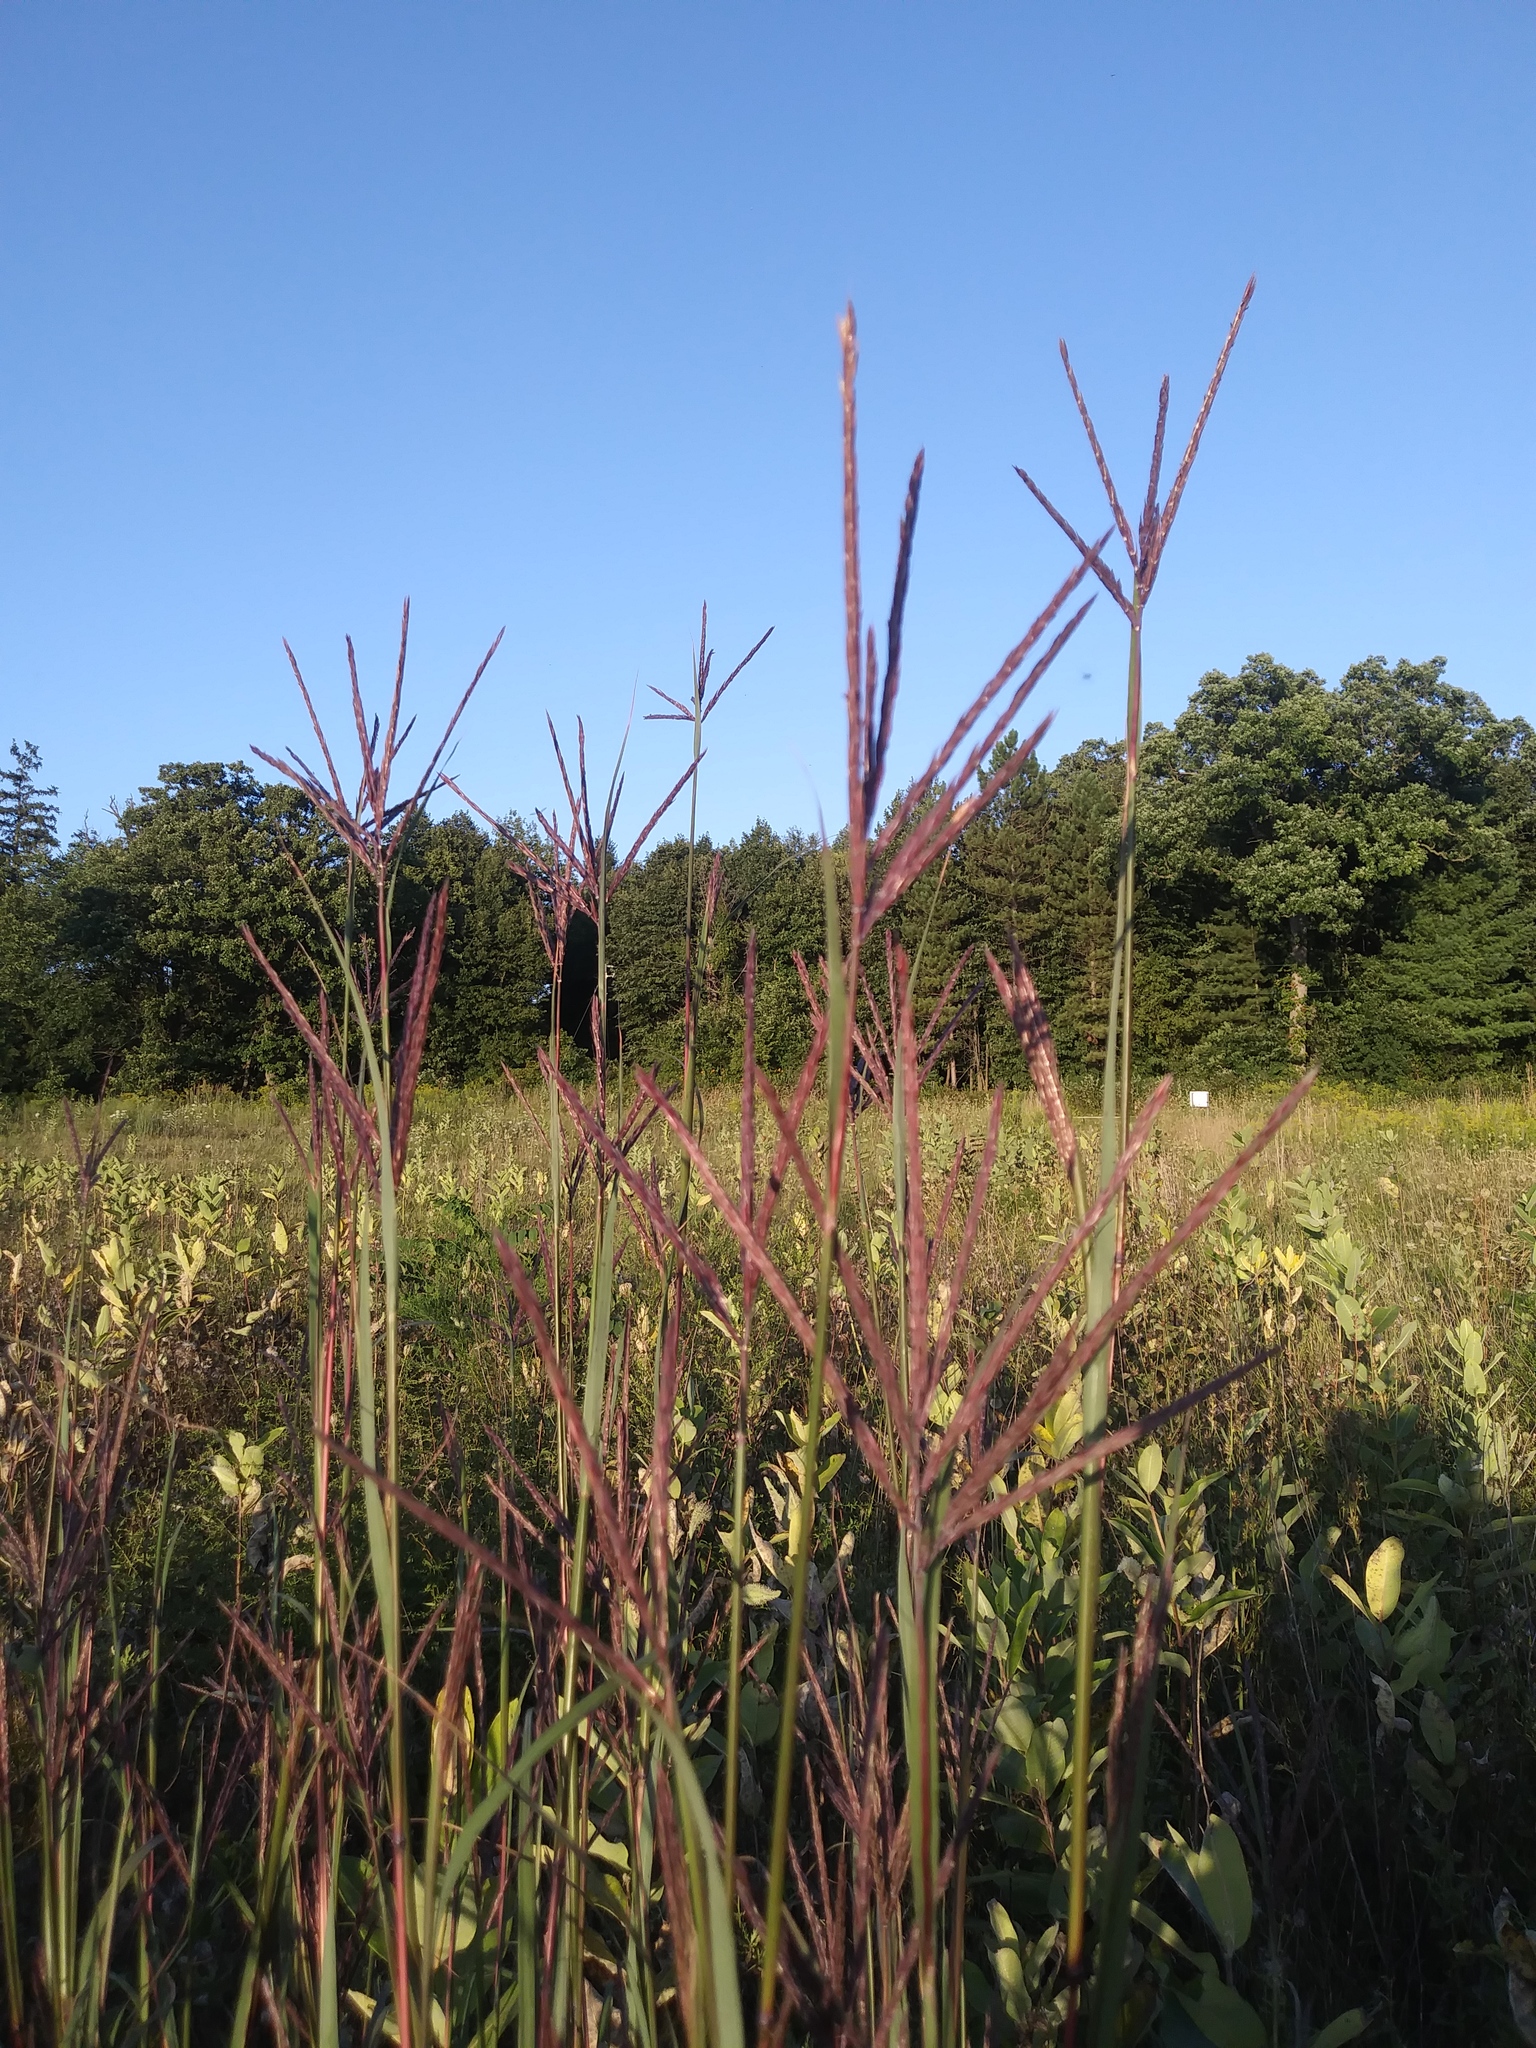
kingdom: Plantae
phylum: Tracheophyta
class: Liliopsida
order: Poales
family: Poaceae
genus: Andropogon
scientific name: Andropogon gerardi
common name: Big bluestem
